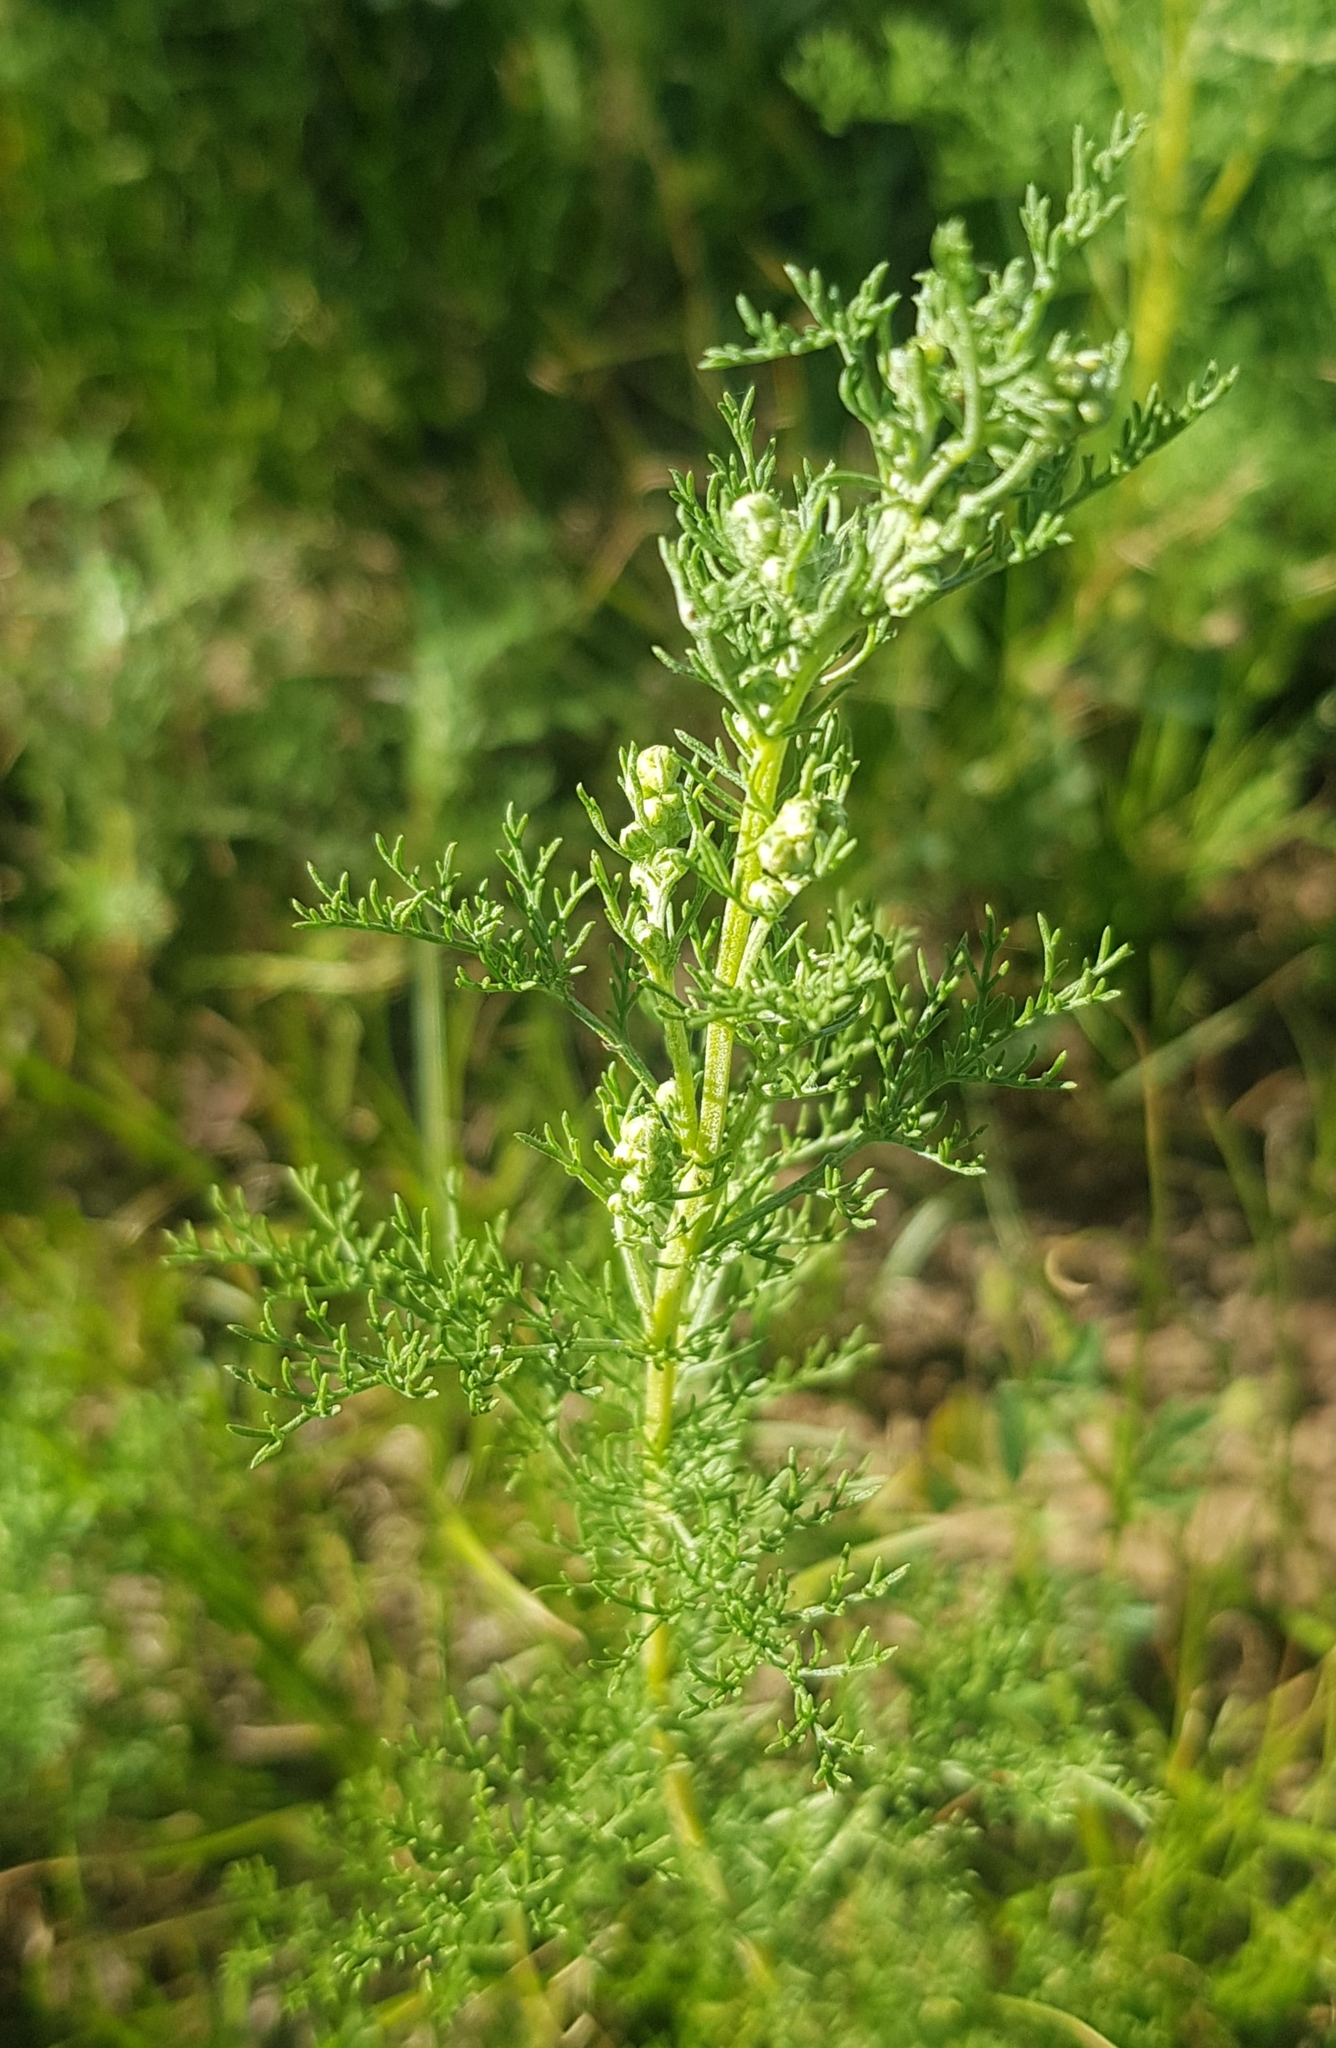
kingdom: Plantae
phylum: Tracheophyta
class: Magnoliopsida
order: Asterales
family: Asteraceae
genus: Artemisia
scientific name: Artemisia adamsii
